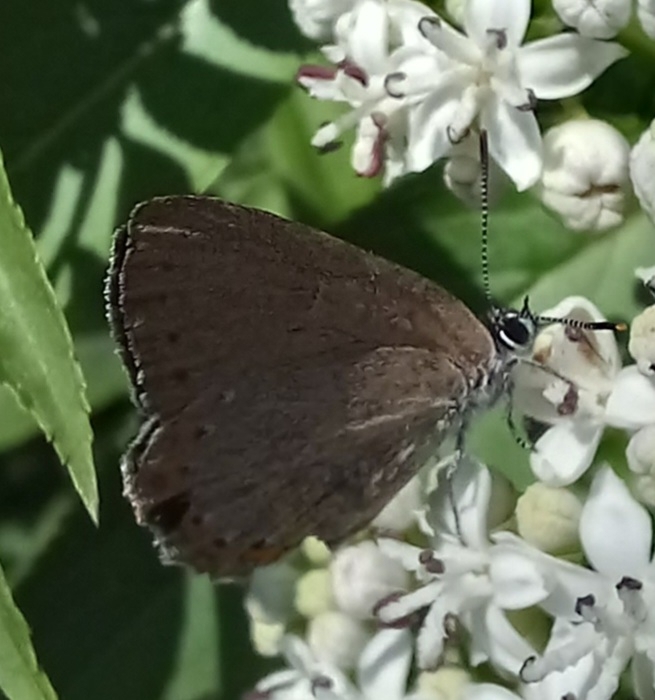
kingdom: Animalia
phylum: Arthropoda
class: Insecta
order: Lepidoptera
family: Lycaenidae
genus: Laeosopis
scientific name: Laeosopis roboris
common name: Spanish purple hairstreak
